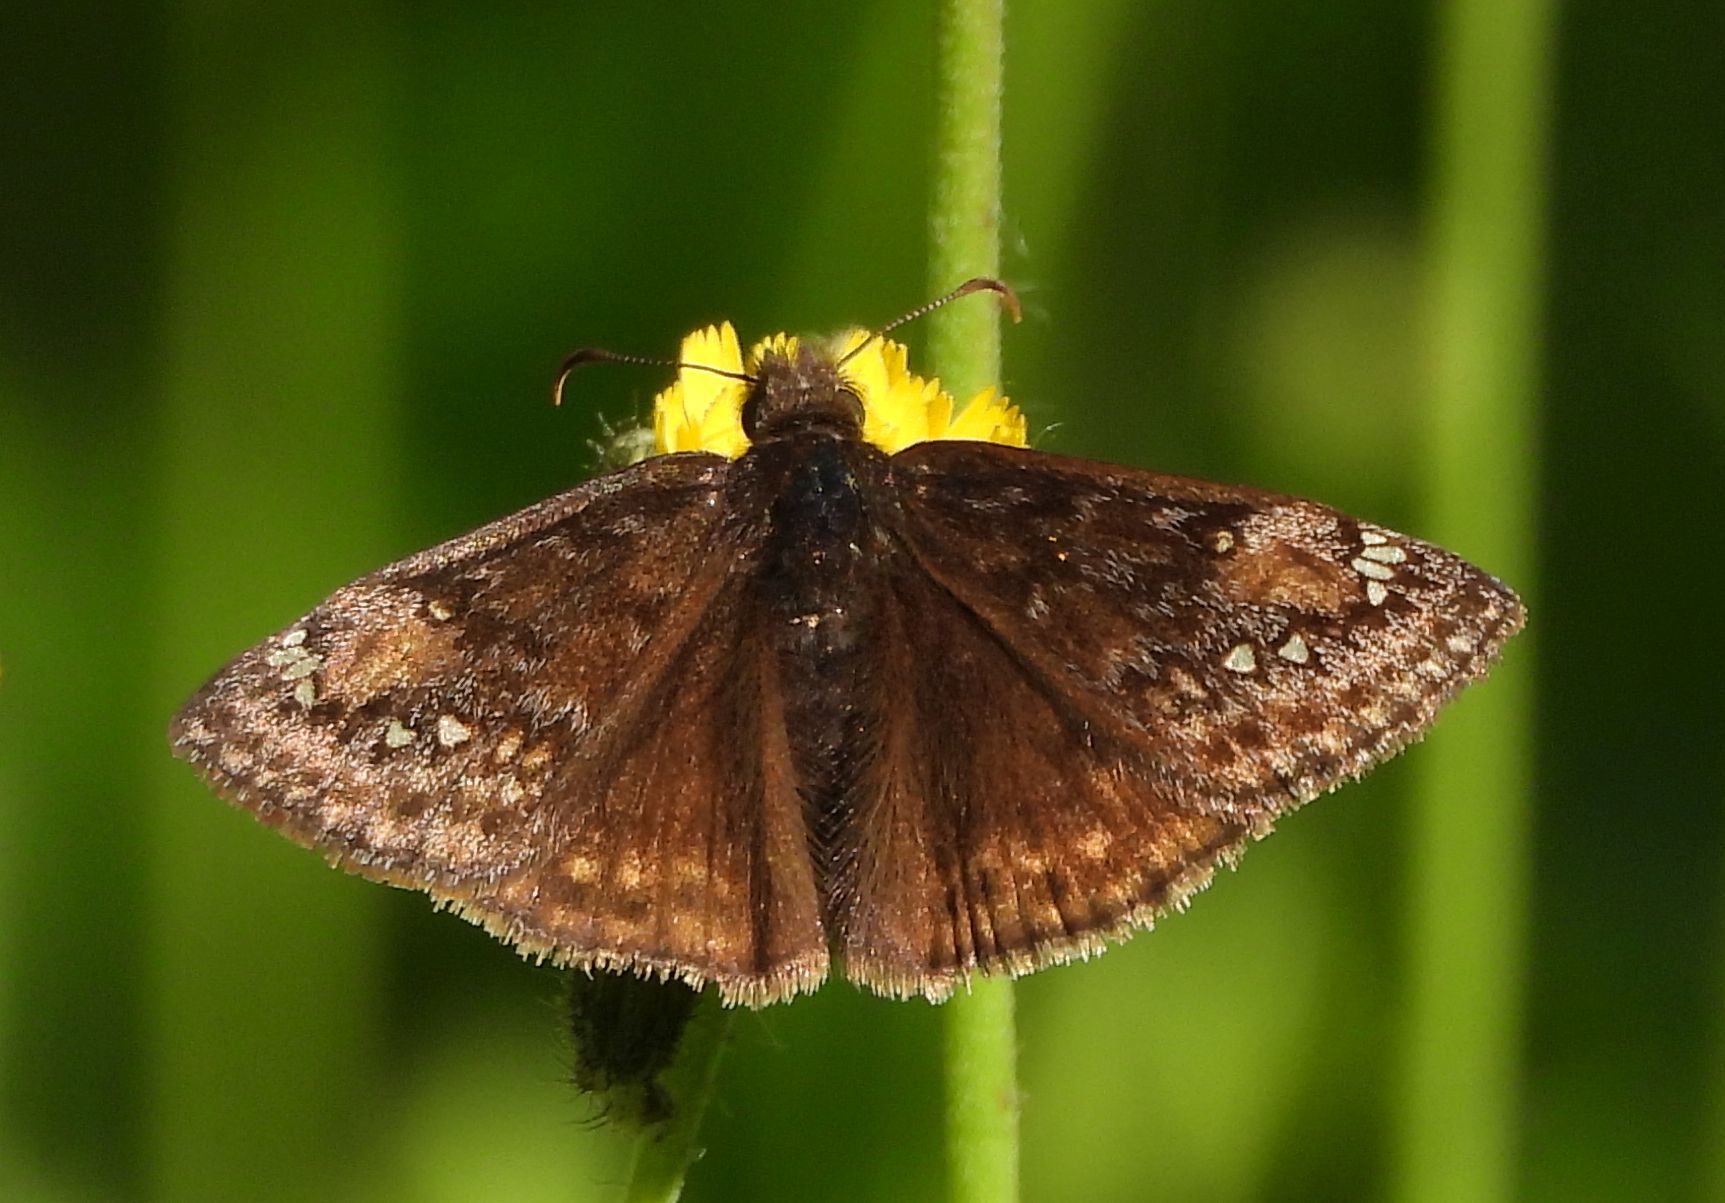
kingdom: Animalia
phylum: Arthropoda
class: Insecta
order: Lepidoptera
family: Hesperiidae
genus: Erynnis
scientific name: Erynnis juvenalis
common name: Juvenal's duskywing
